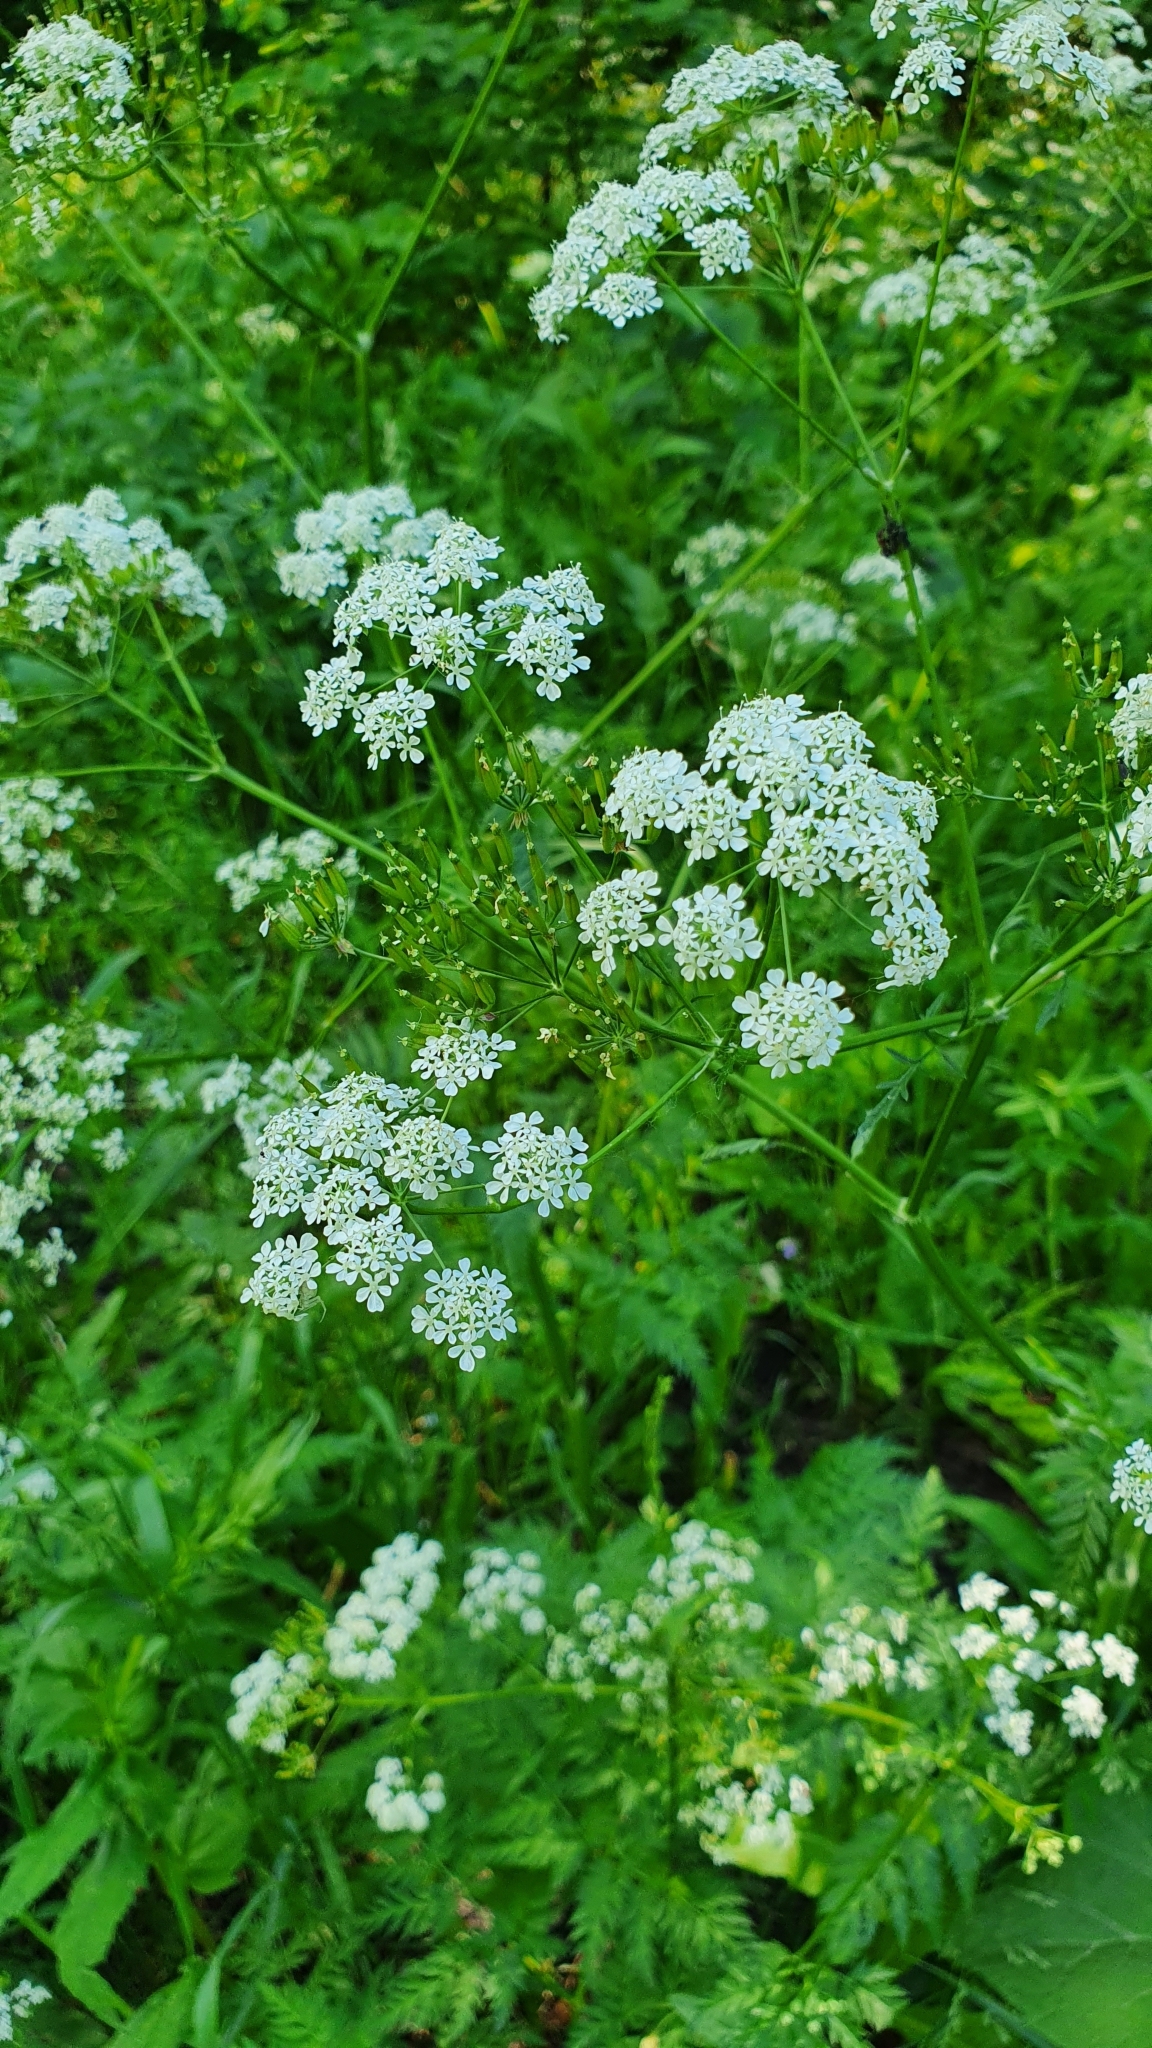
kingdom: Plantae
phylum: Tracheophyta
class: Magnoliopsida
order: Apiales
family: Apiaceae
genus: Anthriscus
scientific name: Anthriscus sylvestris
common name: Cow parsley
